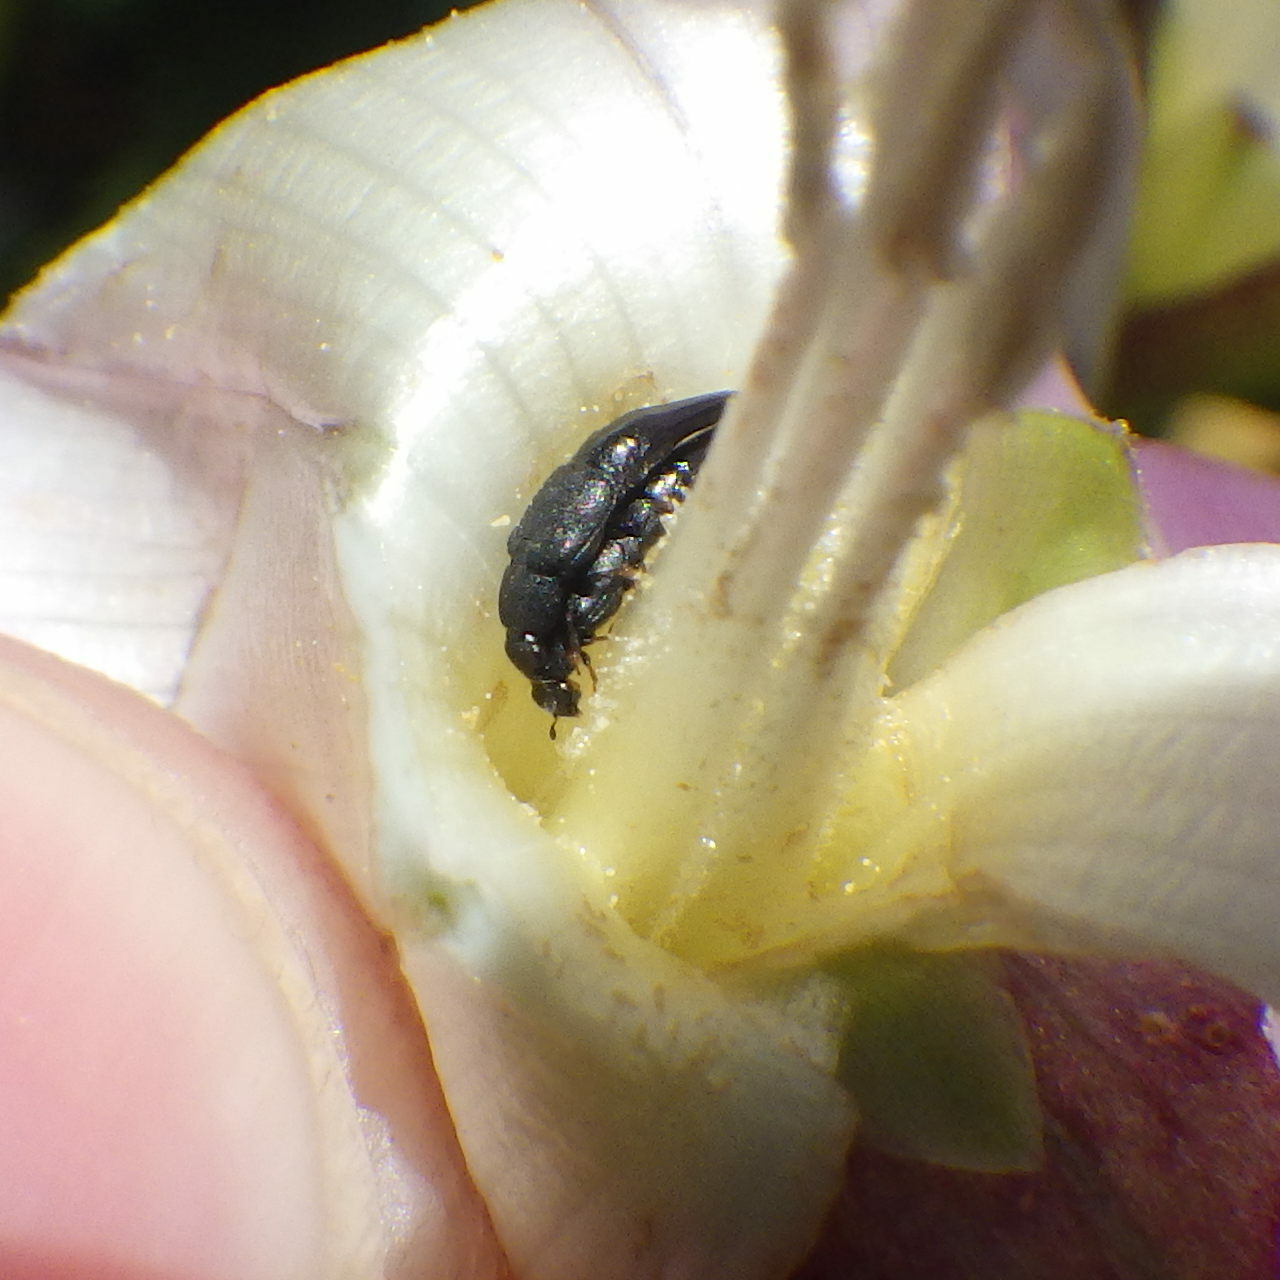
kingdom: Animalia
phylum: Arthropoda
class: Insecta
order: Coleoptera
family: Nitidulidae
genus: Conotelus
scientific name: Conotelus obscurus
